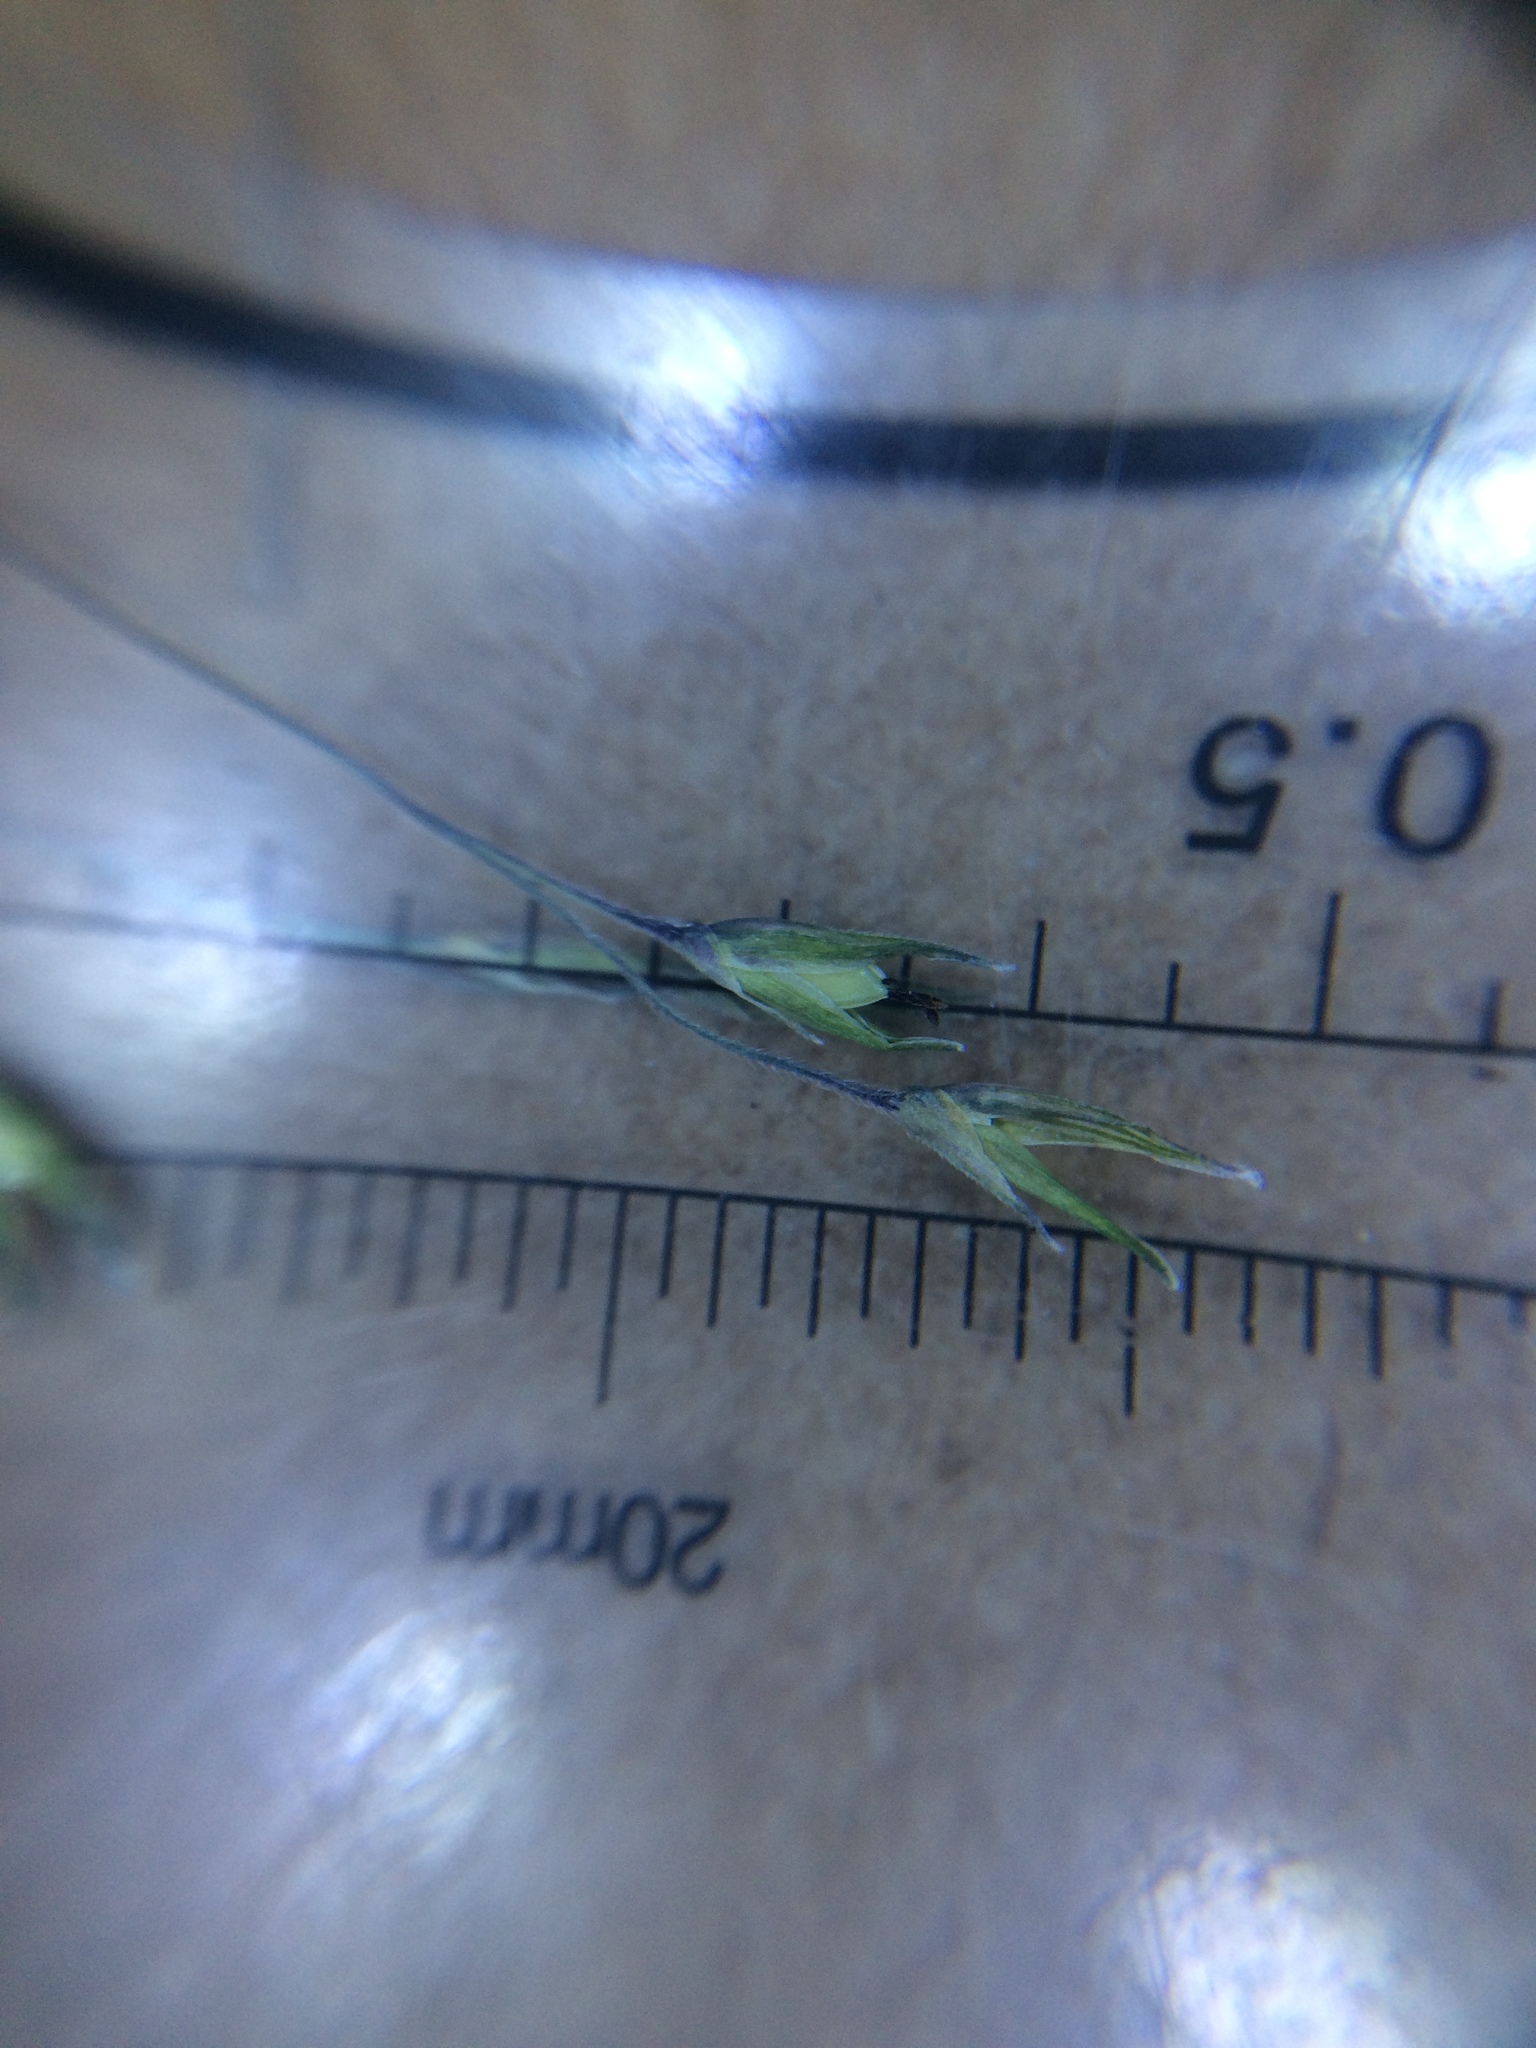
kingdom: Plantae
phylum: Tracheophyta
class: Liliopsida
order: Poales
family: Poaceae
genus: Panicum
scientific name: Panicum capillare
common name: Witch-grass
